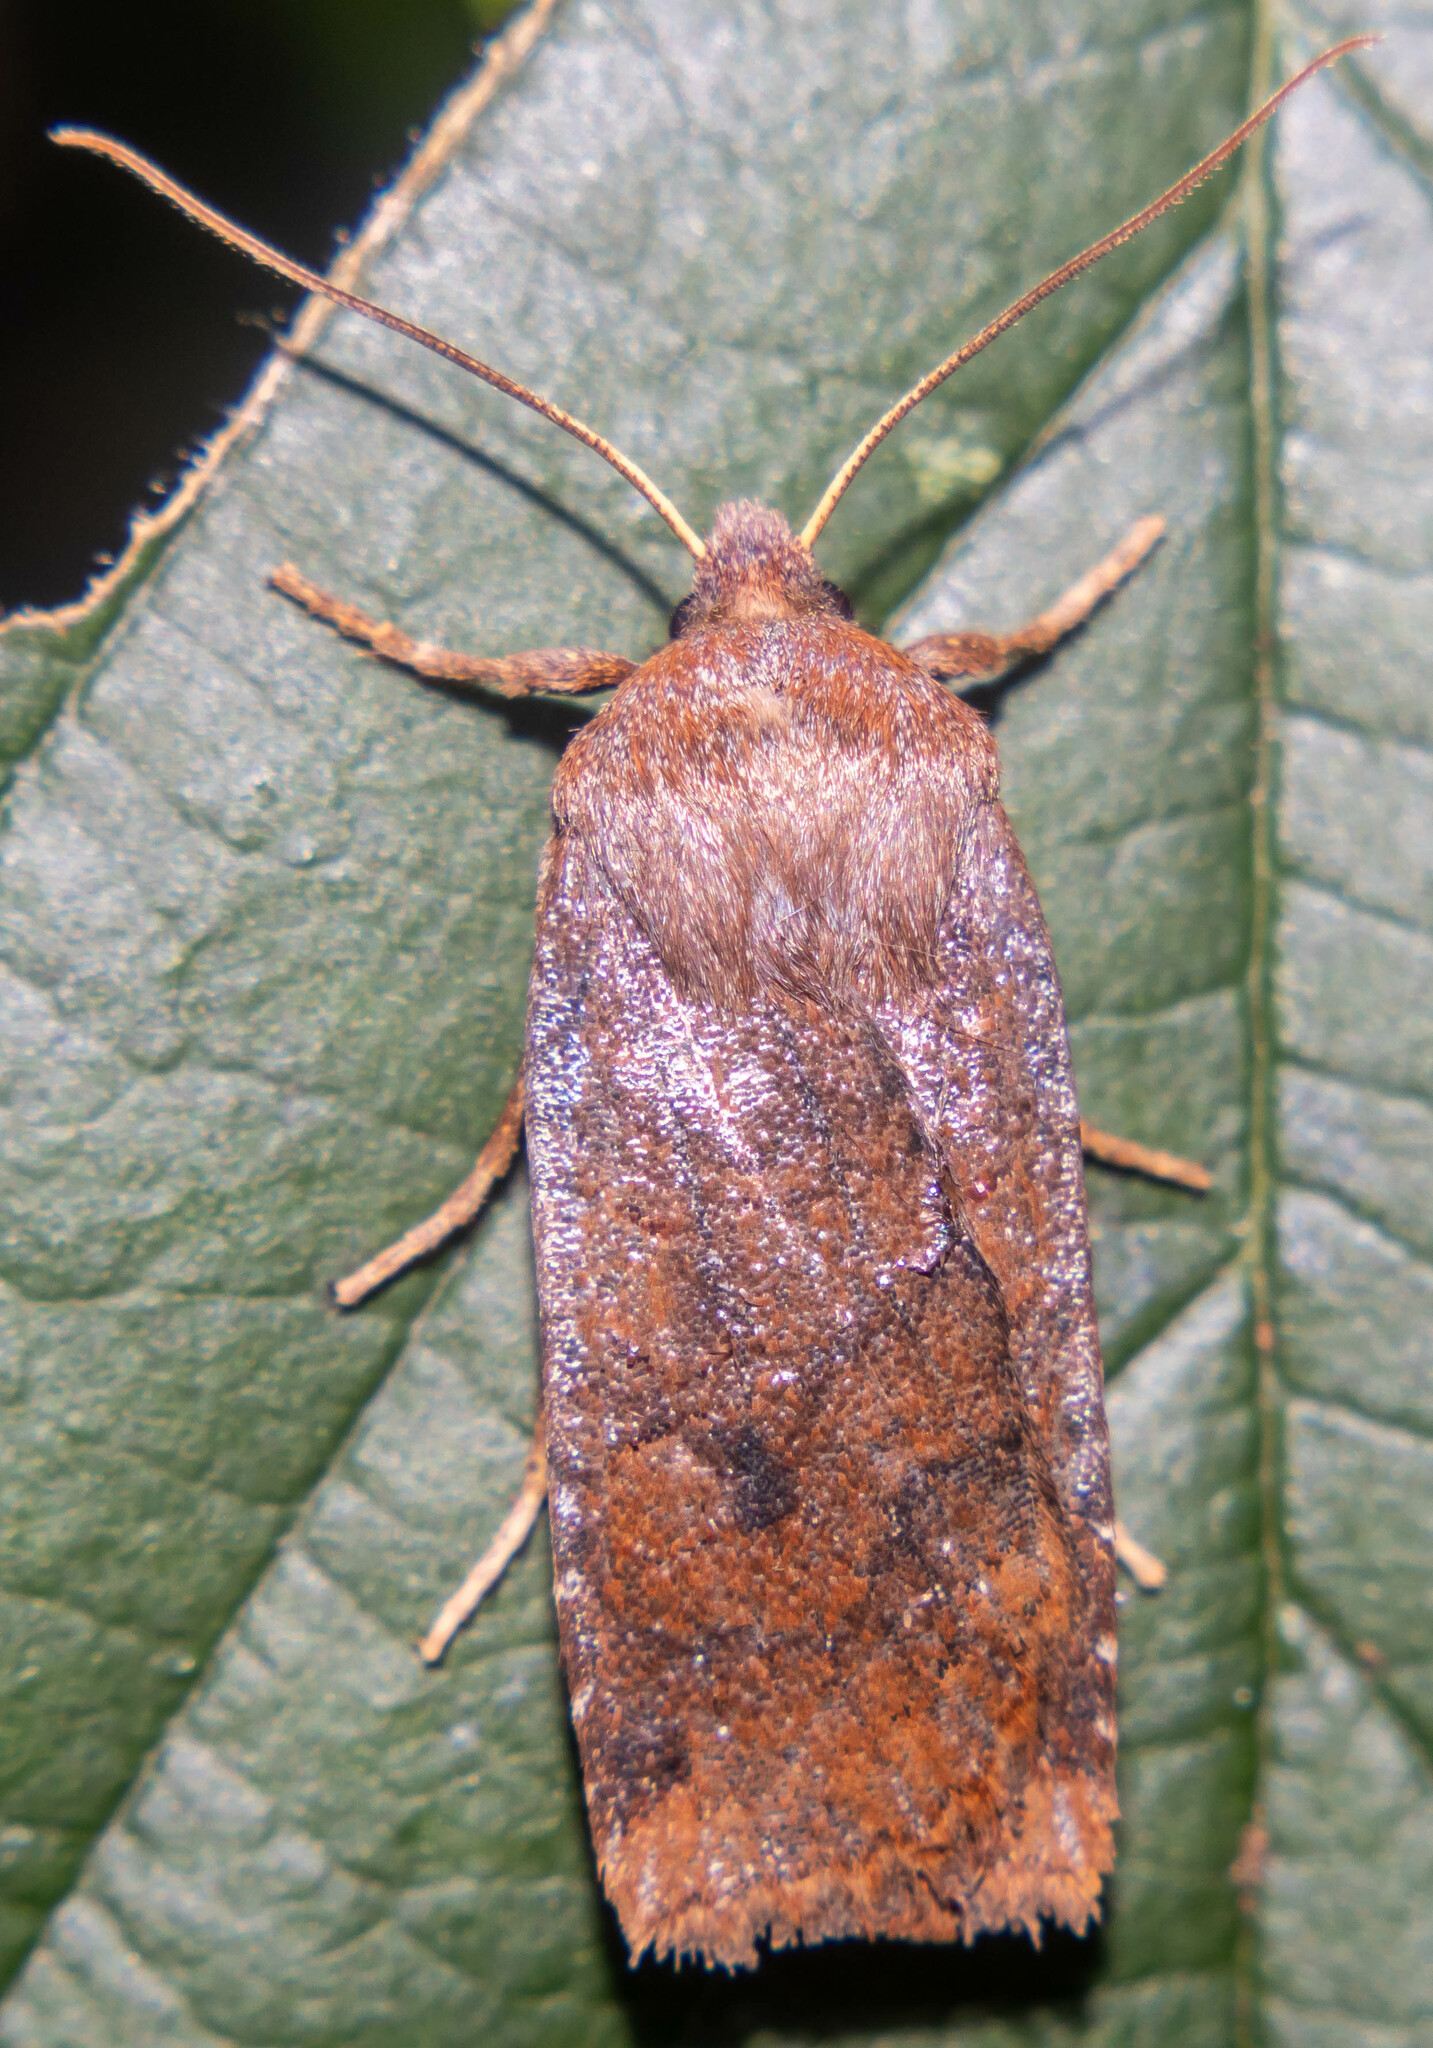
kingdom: Animalia
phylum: Arthropoda
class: Insecta
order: Lepidoptera
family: Noctuidae
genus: Conistra
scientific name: Conistra vaccinii
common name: Chestnut
